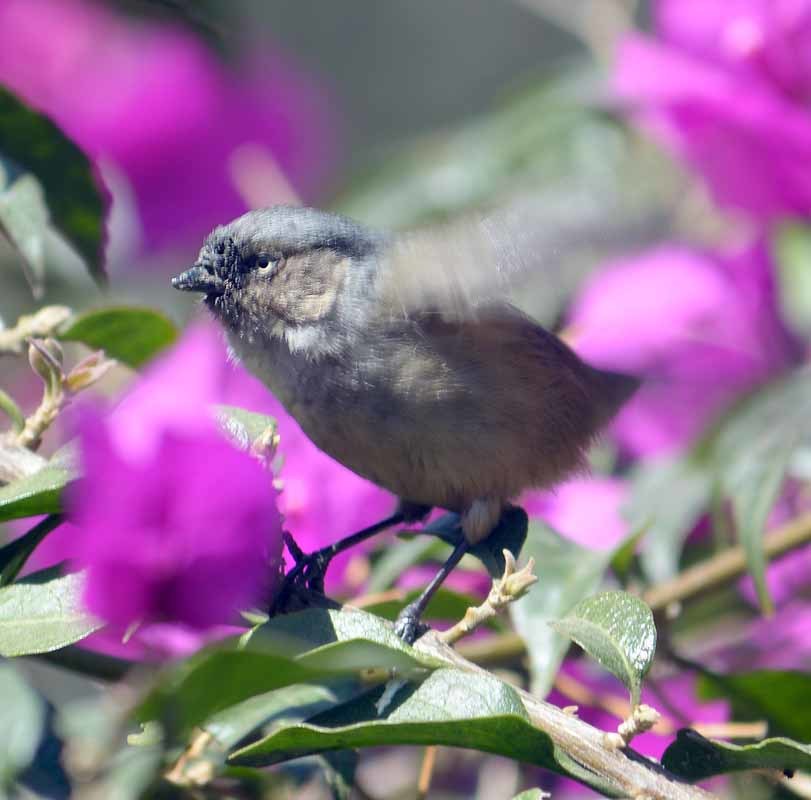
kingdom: Animalia
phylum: Chordata
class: Aves
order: Passeriformes
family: Aegithalidae
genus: Psaltriparus
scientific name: Psaltriparus minimus
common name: American bushtit
